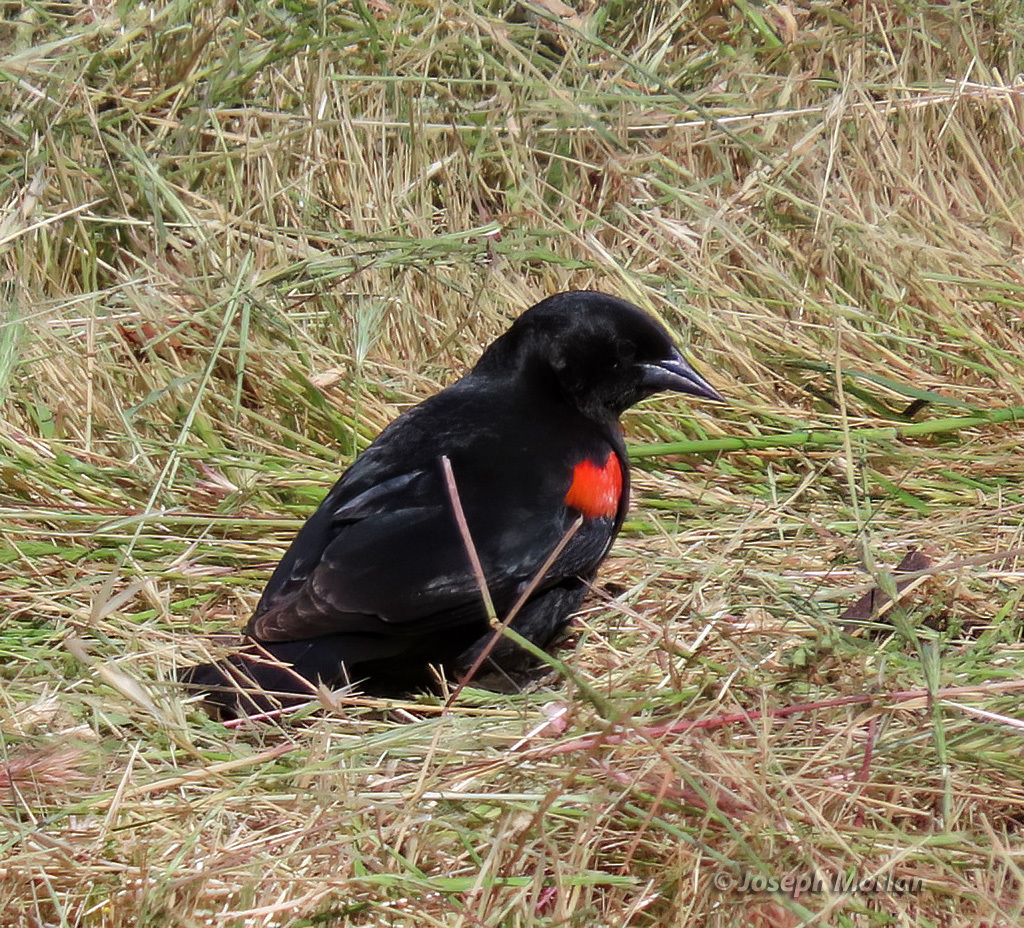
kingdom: Animalia
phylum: Chordata
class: Aves
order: Passeriformes
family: Icteridae
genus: Agelaius
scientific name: Agelaius phoeniceus
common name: Red-winged blackbird
